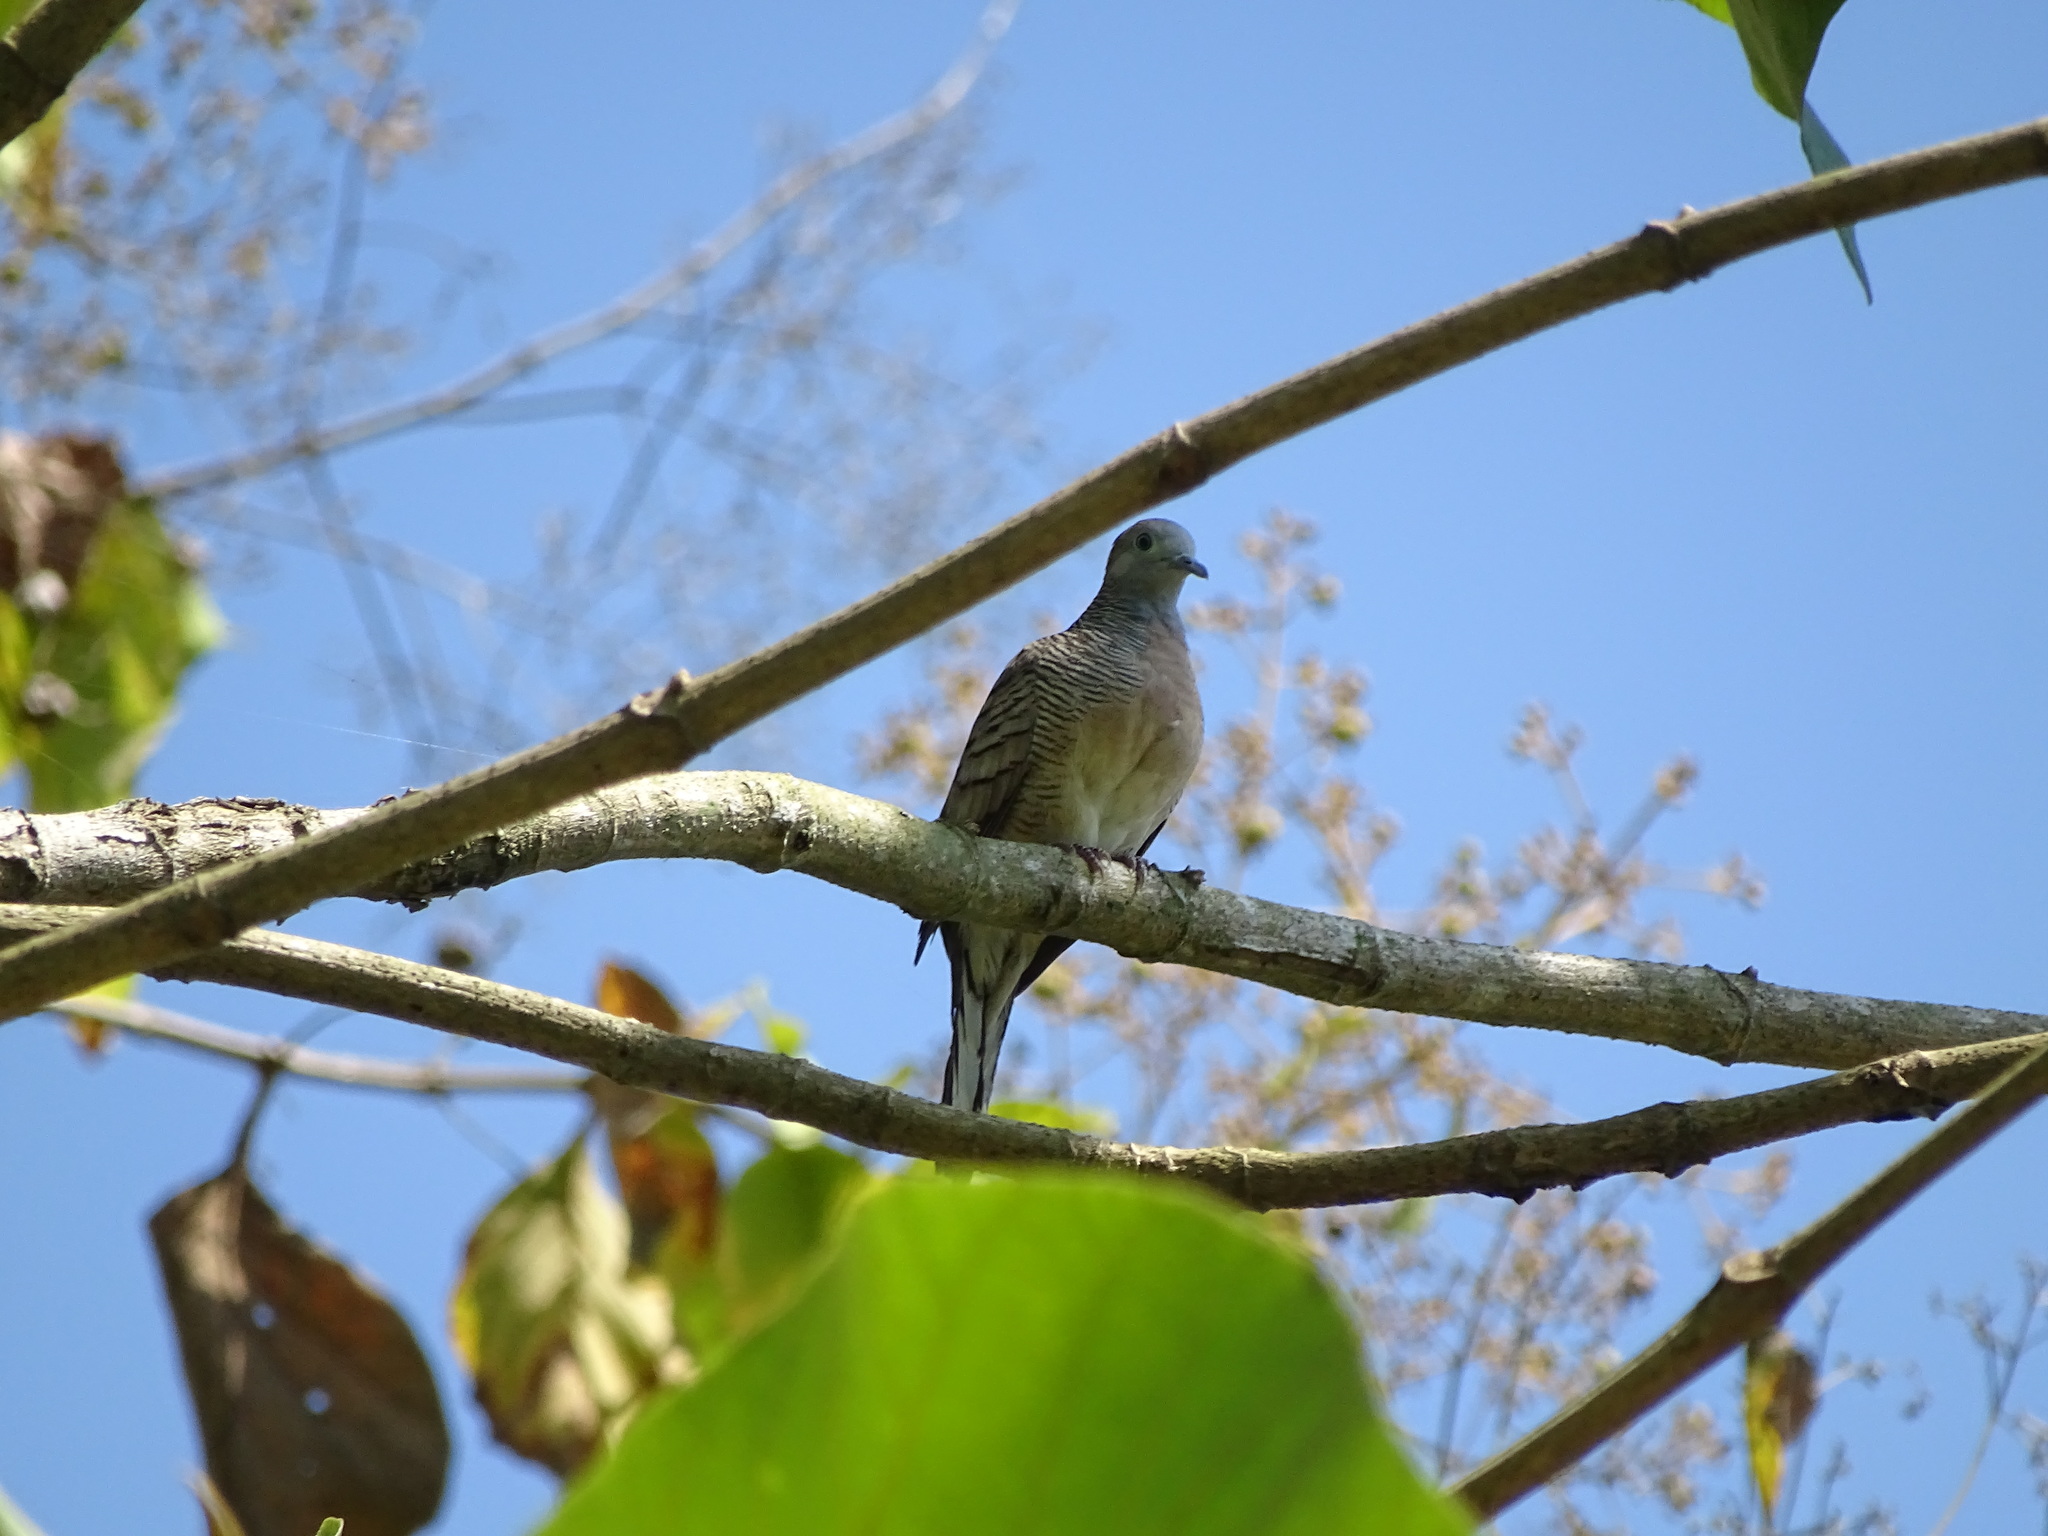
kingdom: Animalia
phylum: Chordata
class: Aves
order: Columbiformes
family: Columbidae
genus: Geopelia
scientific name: Geopelia striata
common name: Zebra dove
